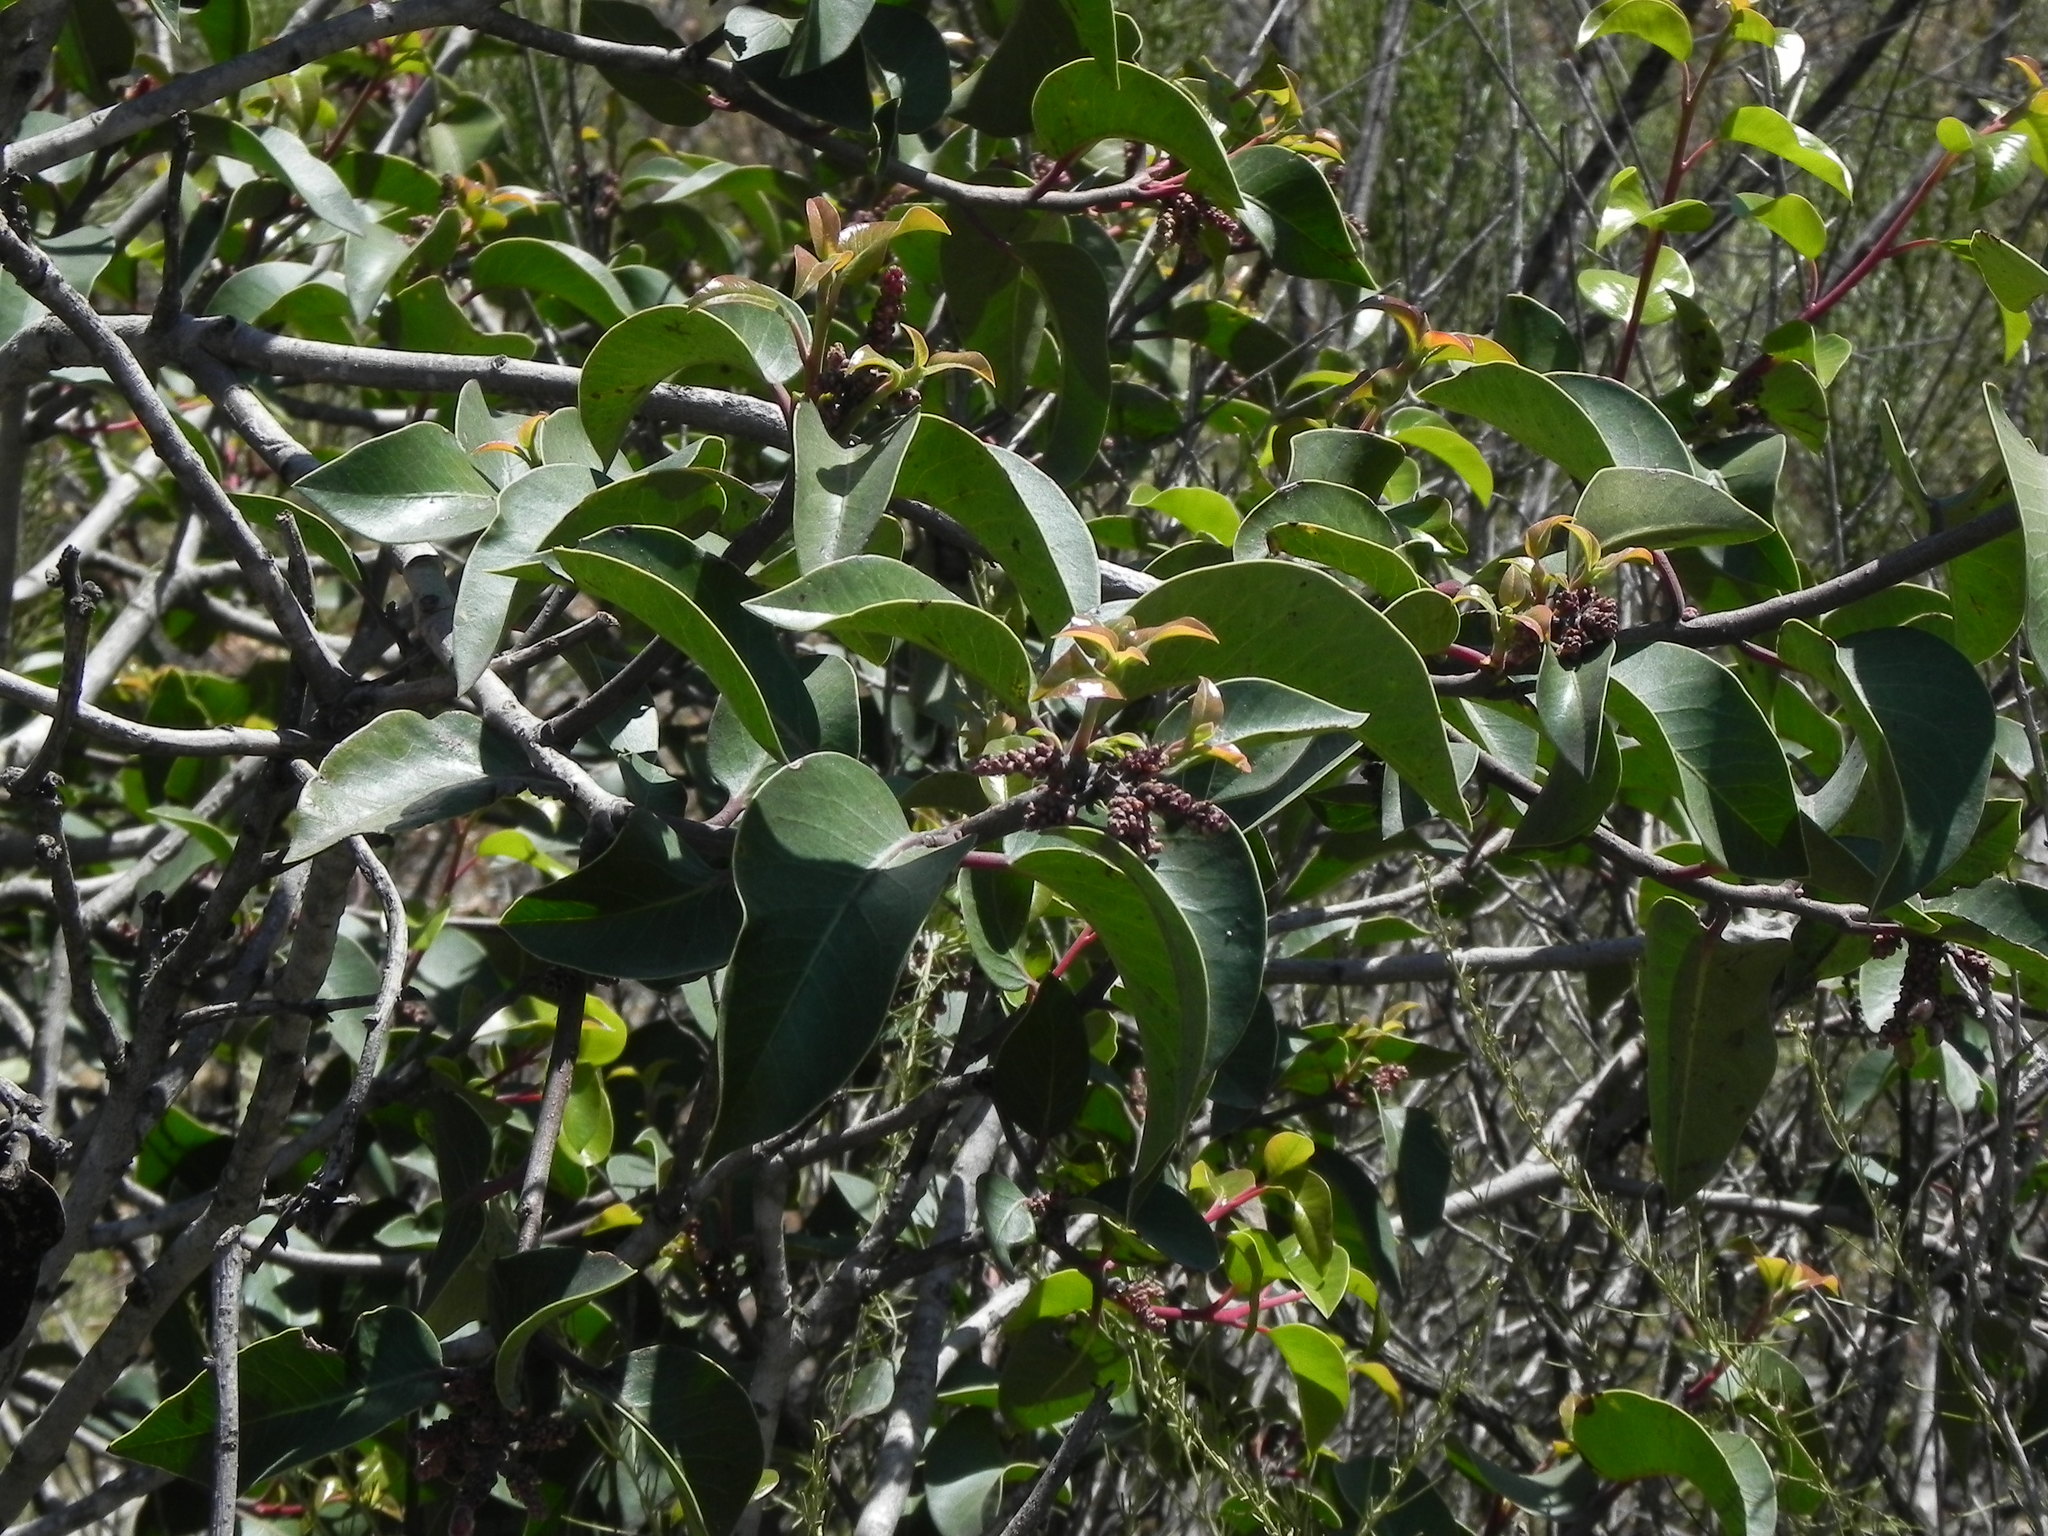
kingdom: Plantae
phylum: Tracheophyta
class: Magnoliopsida
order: Sapindales
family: Anacardiaceae
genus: Rhus
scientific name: Rhus ovata
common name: Sugar sumac
